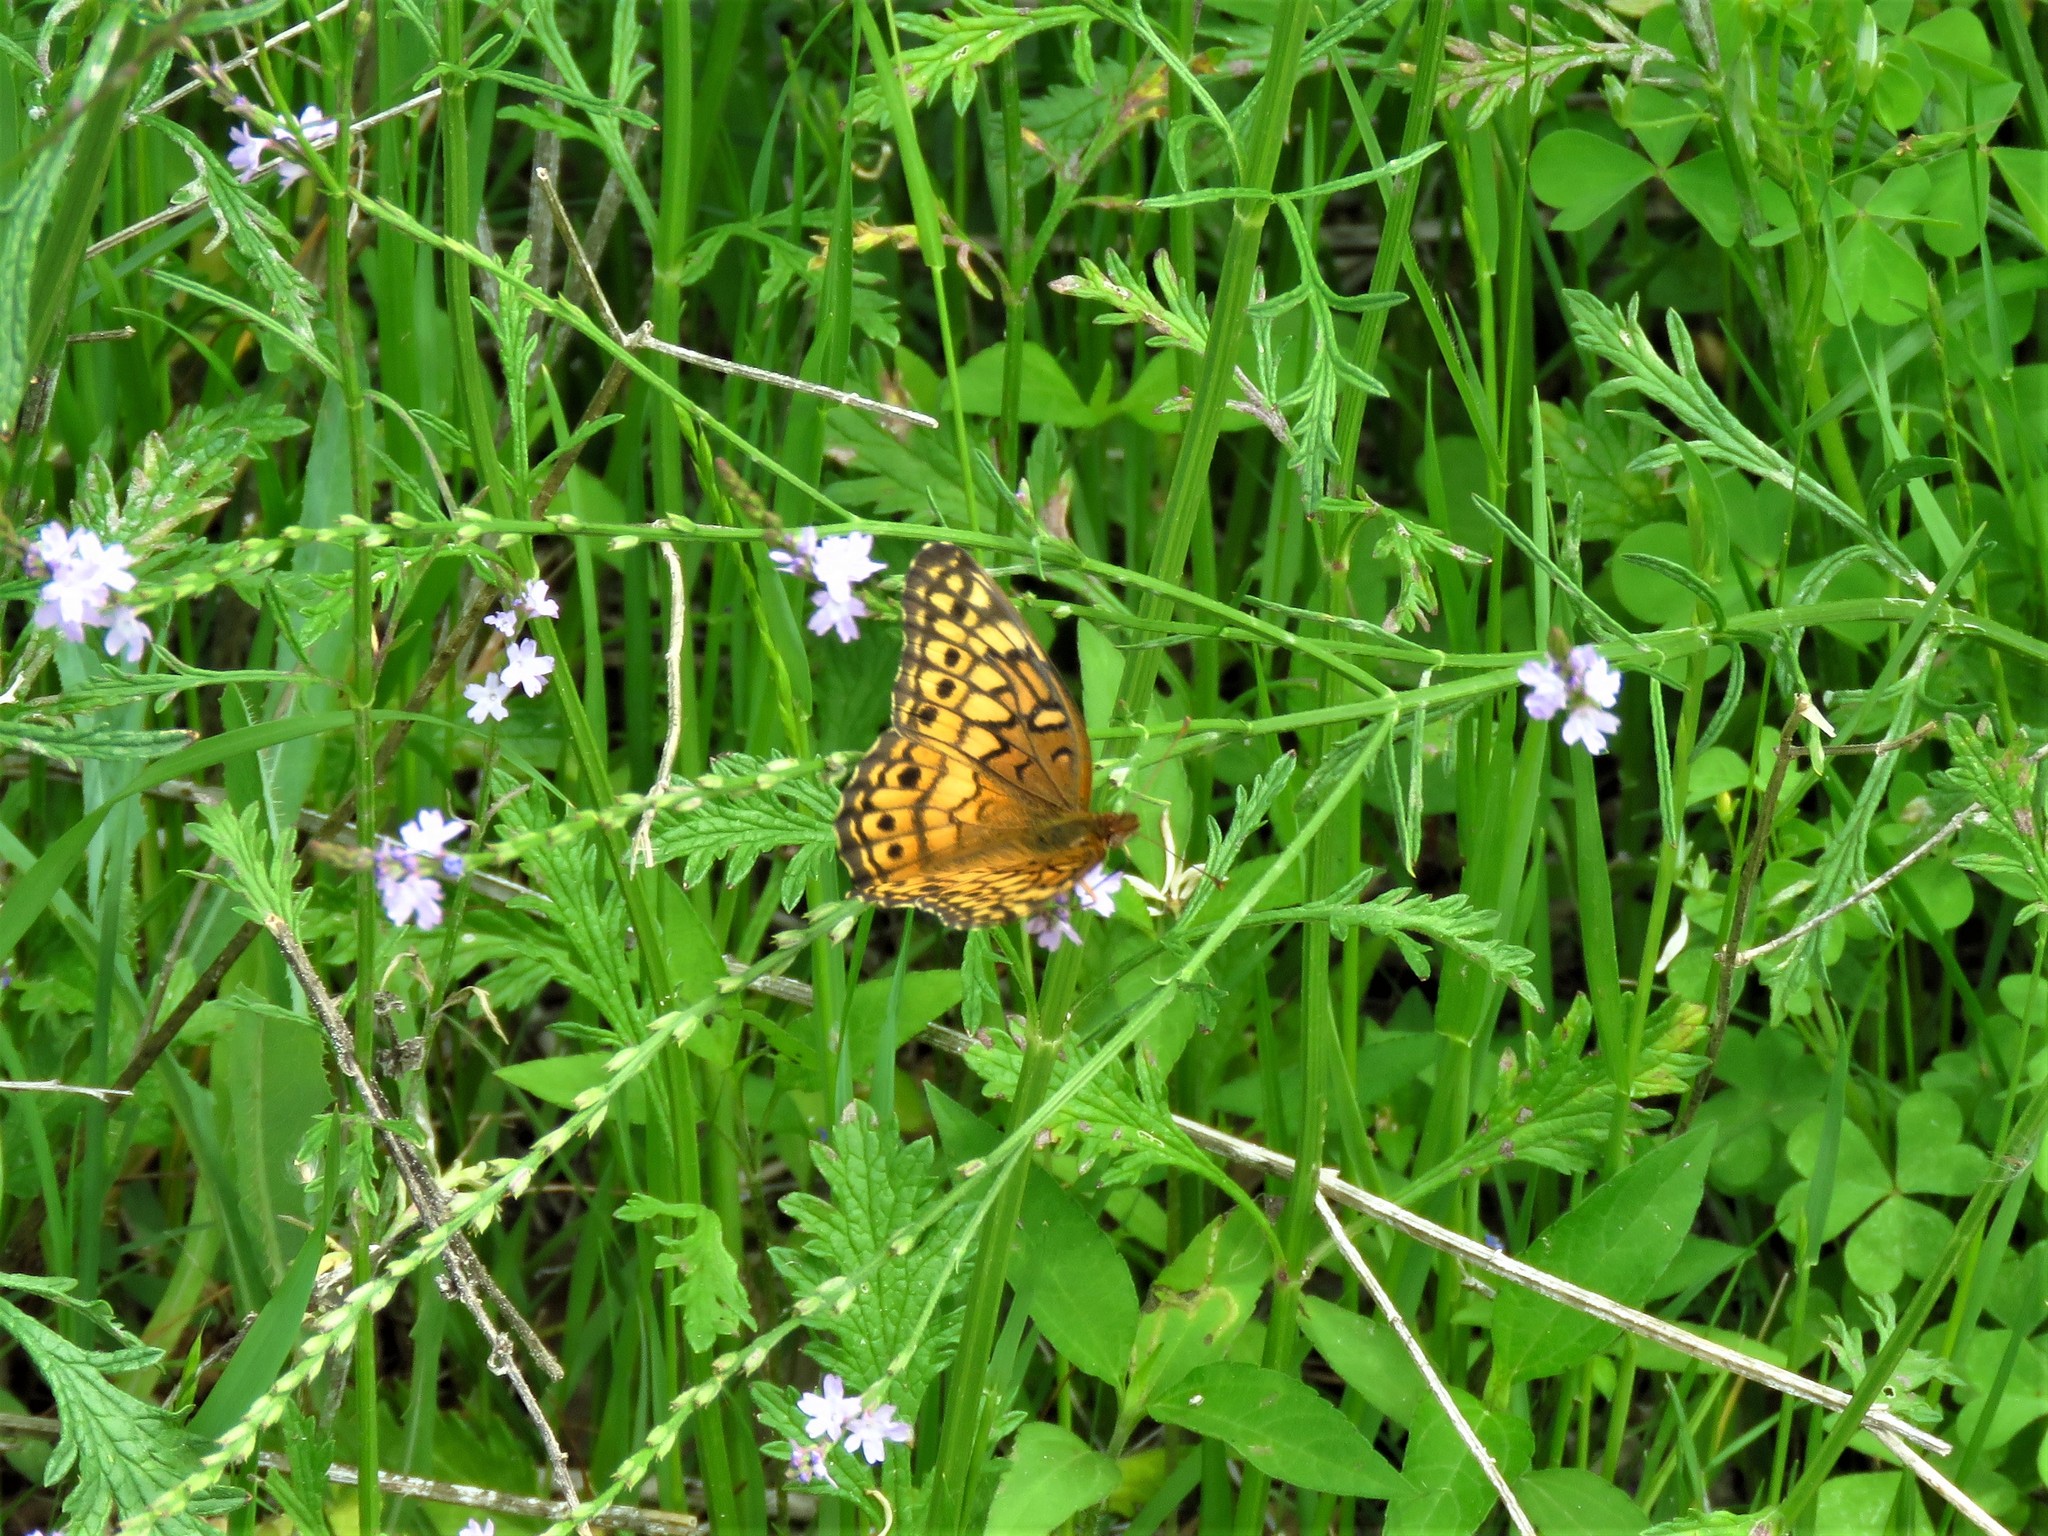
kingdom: Animalia
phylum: Arthropoda
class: Insecta
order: Lepidoptera
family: Nymphalidae
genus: Euptoieta
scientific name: Euptoieta claudia
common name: Variegated fritillary
